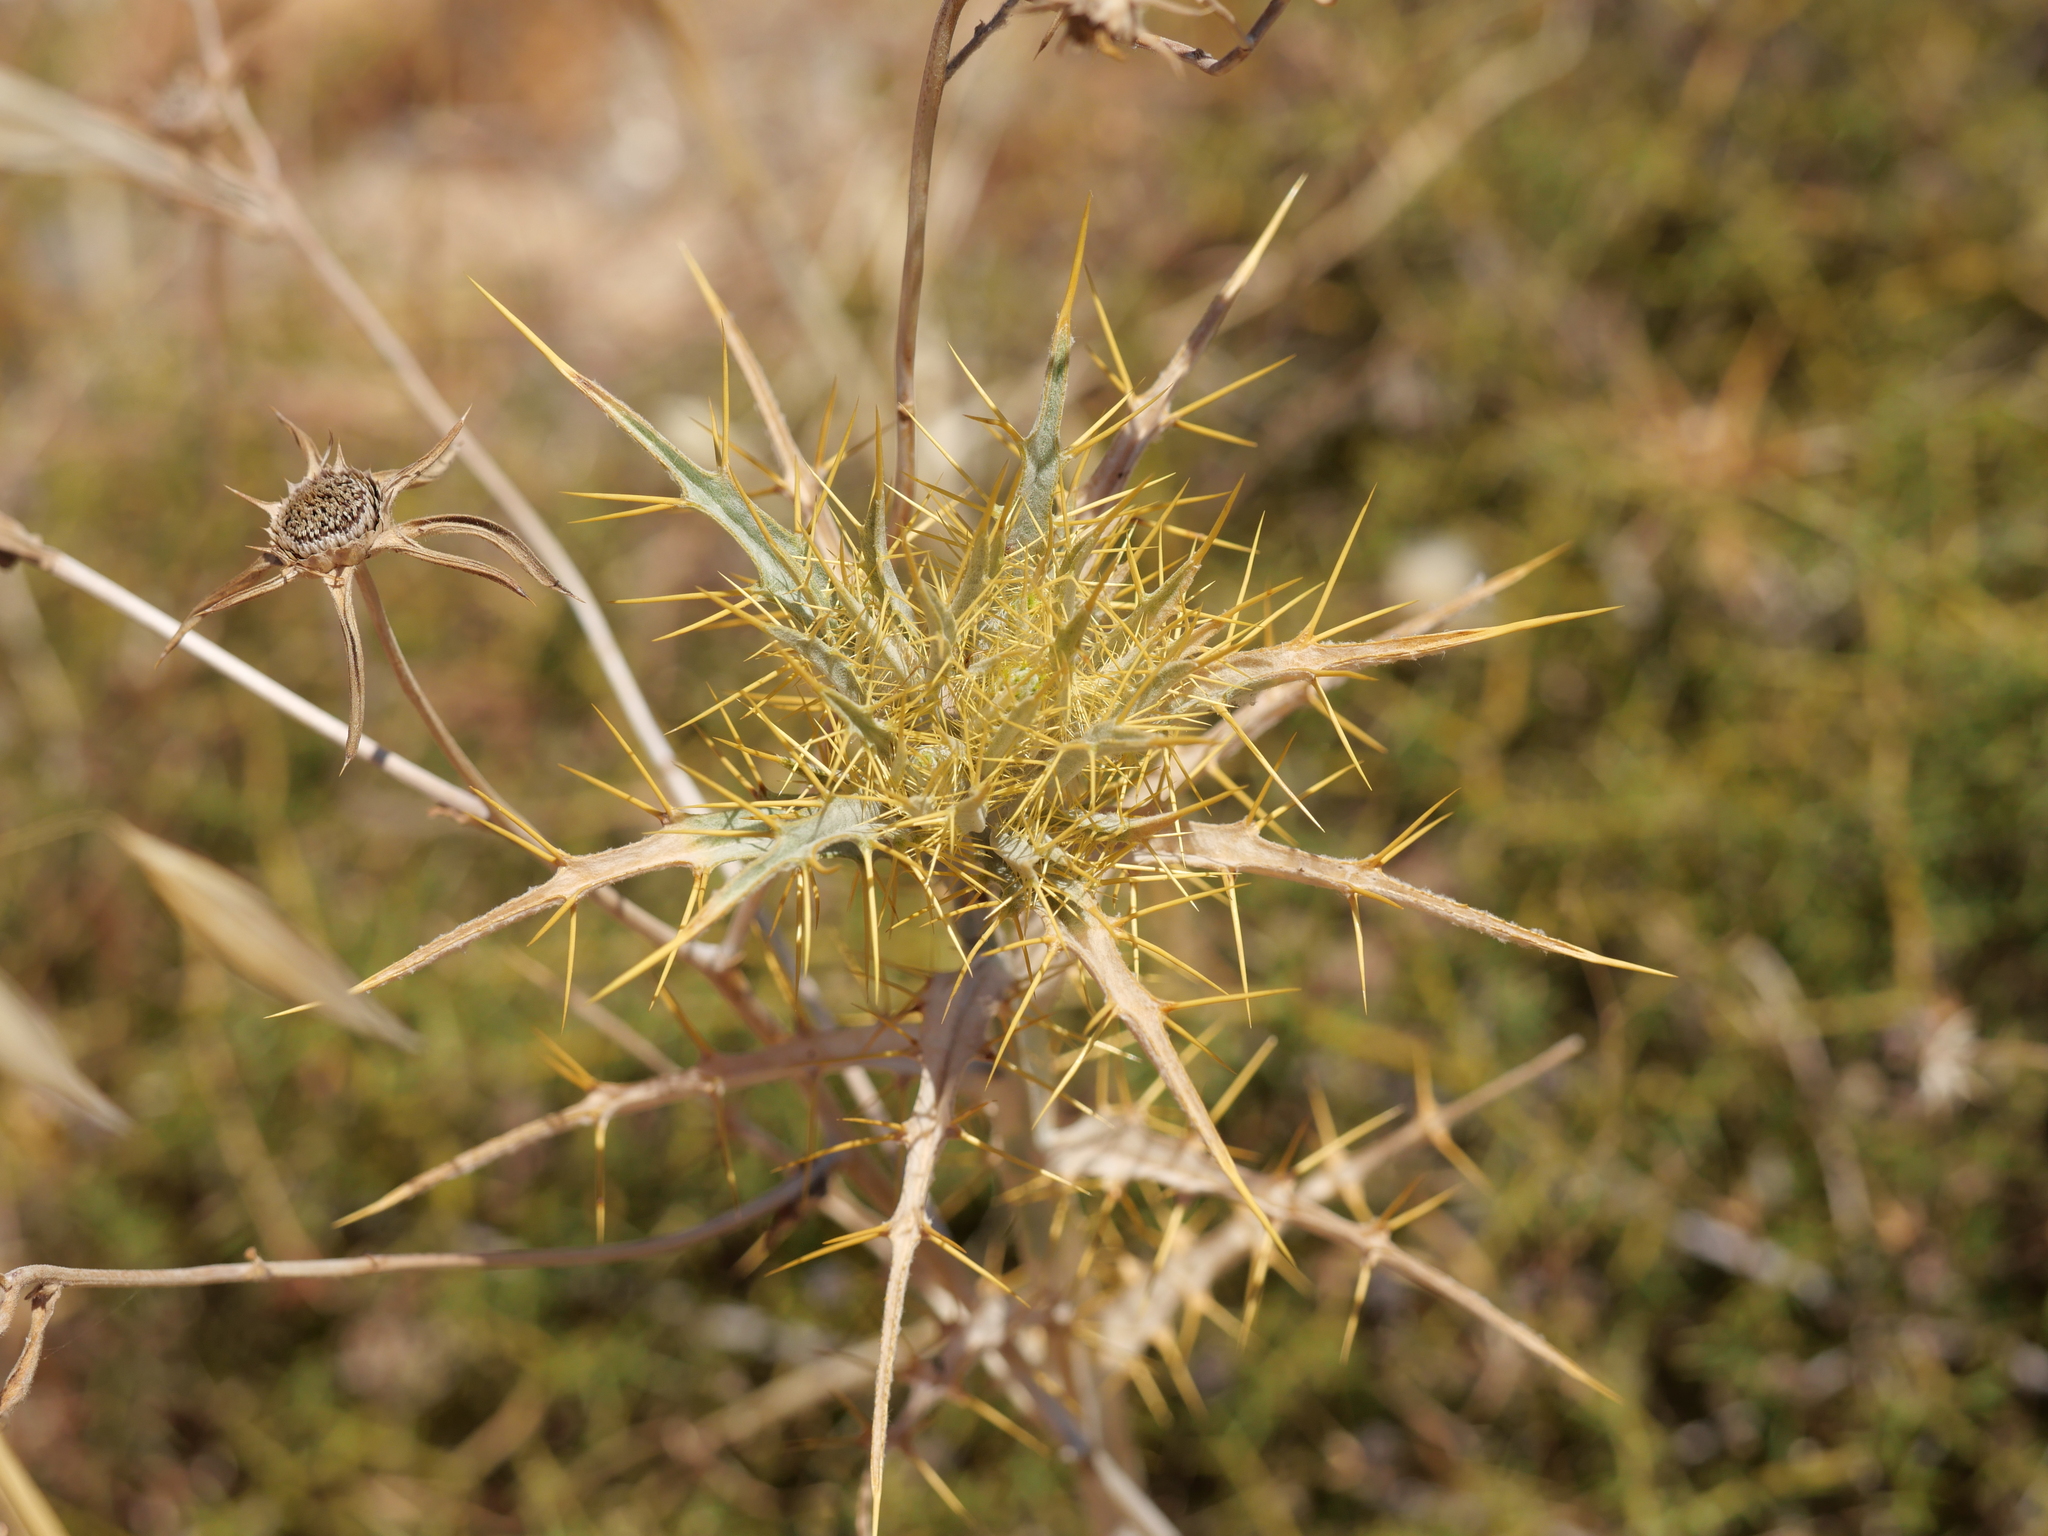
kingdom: Plantae
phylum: Tracheophyta
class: Magnoliopsida
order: Asterales
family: Asteraceae
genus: Picnomon
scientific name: Picnomon acarna
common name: Soldier thistle
